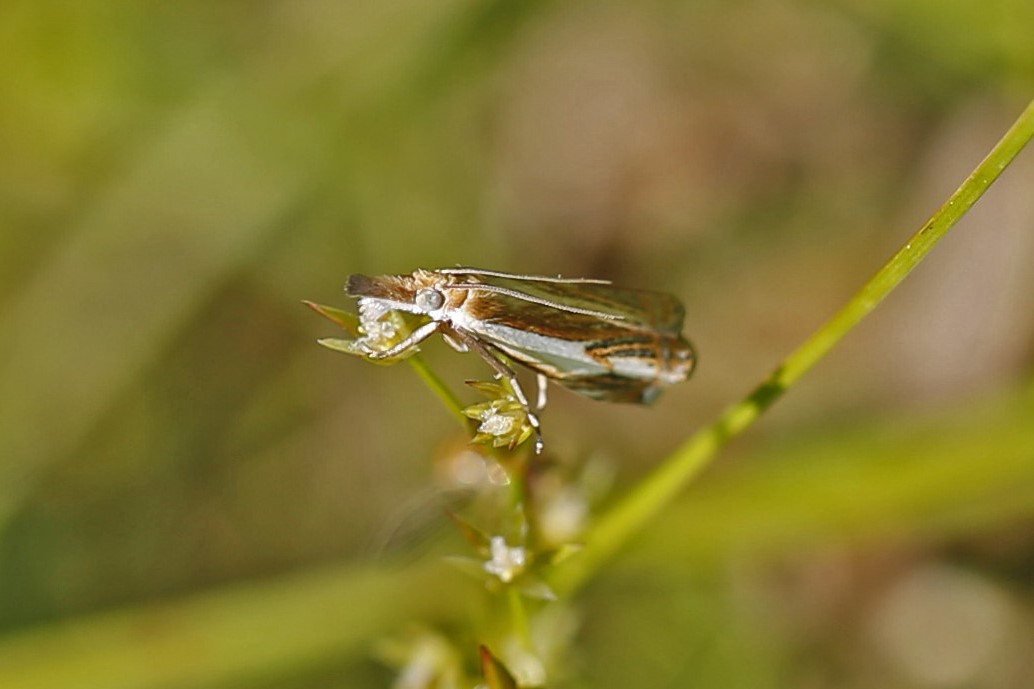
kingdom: Animalia
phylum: Arthropoda
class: Insecta
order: Lepidoptera
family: Crambidae
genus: Crambus
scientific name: Crambus agitatellus
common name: Double-banded grass-veneer
